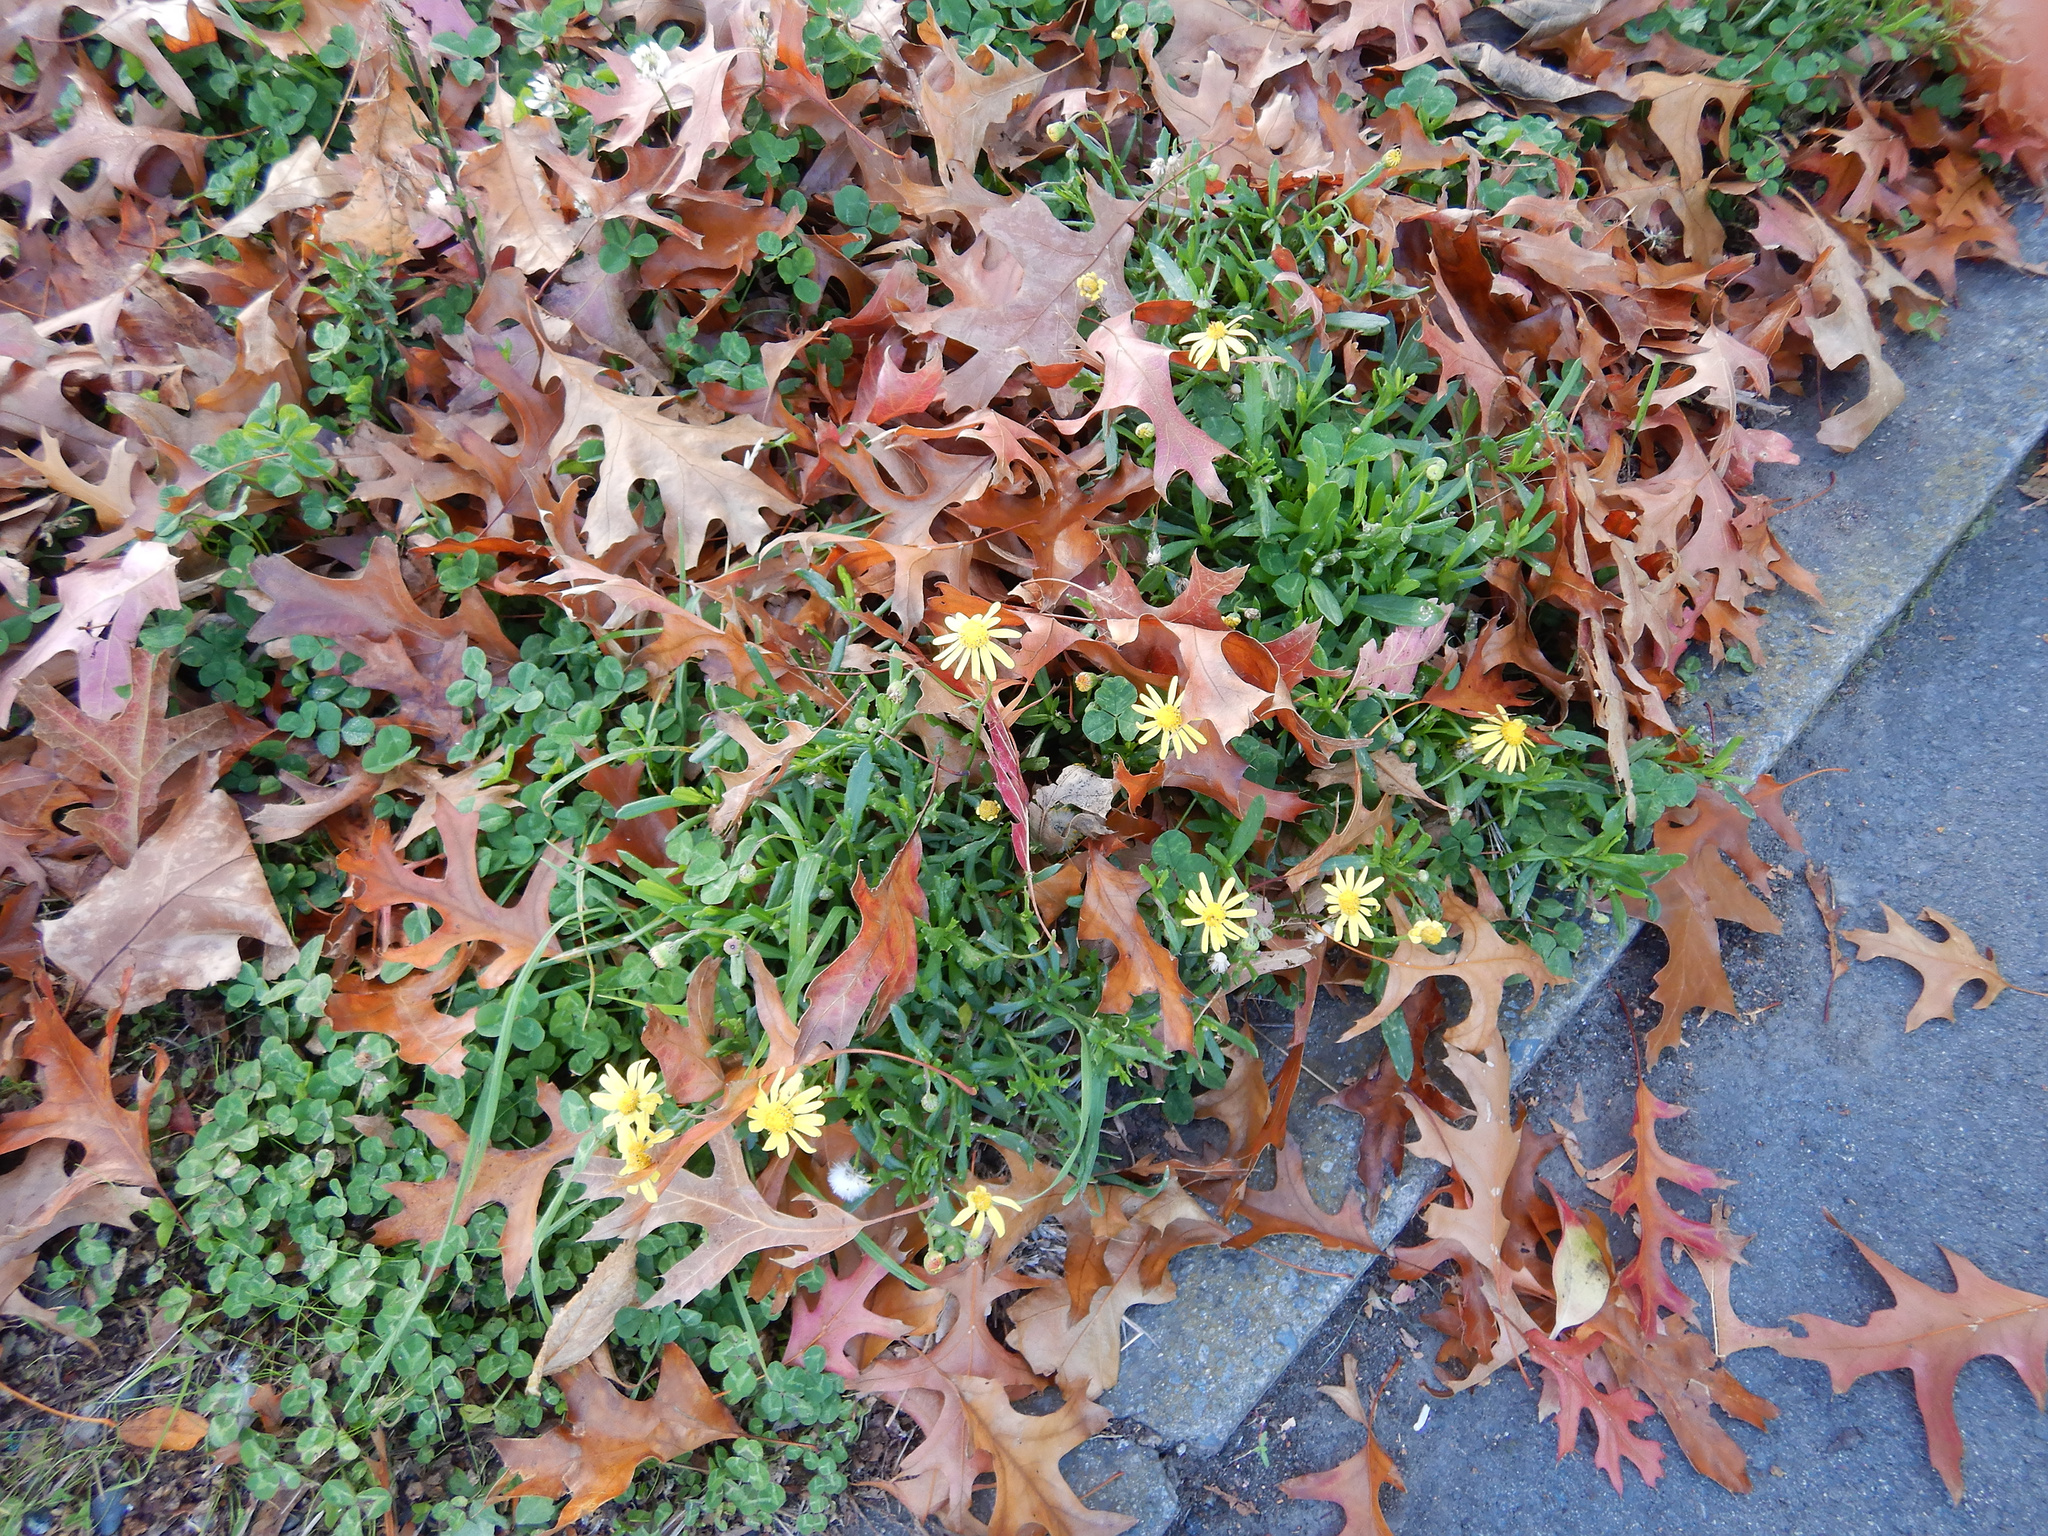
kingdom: Plantae
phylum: Tracheophyta
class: Magnoliopsida
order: Asterales
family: Asteraceae
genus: Senecio
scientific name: Senecio skirrhodon
